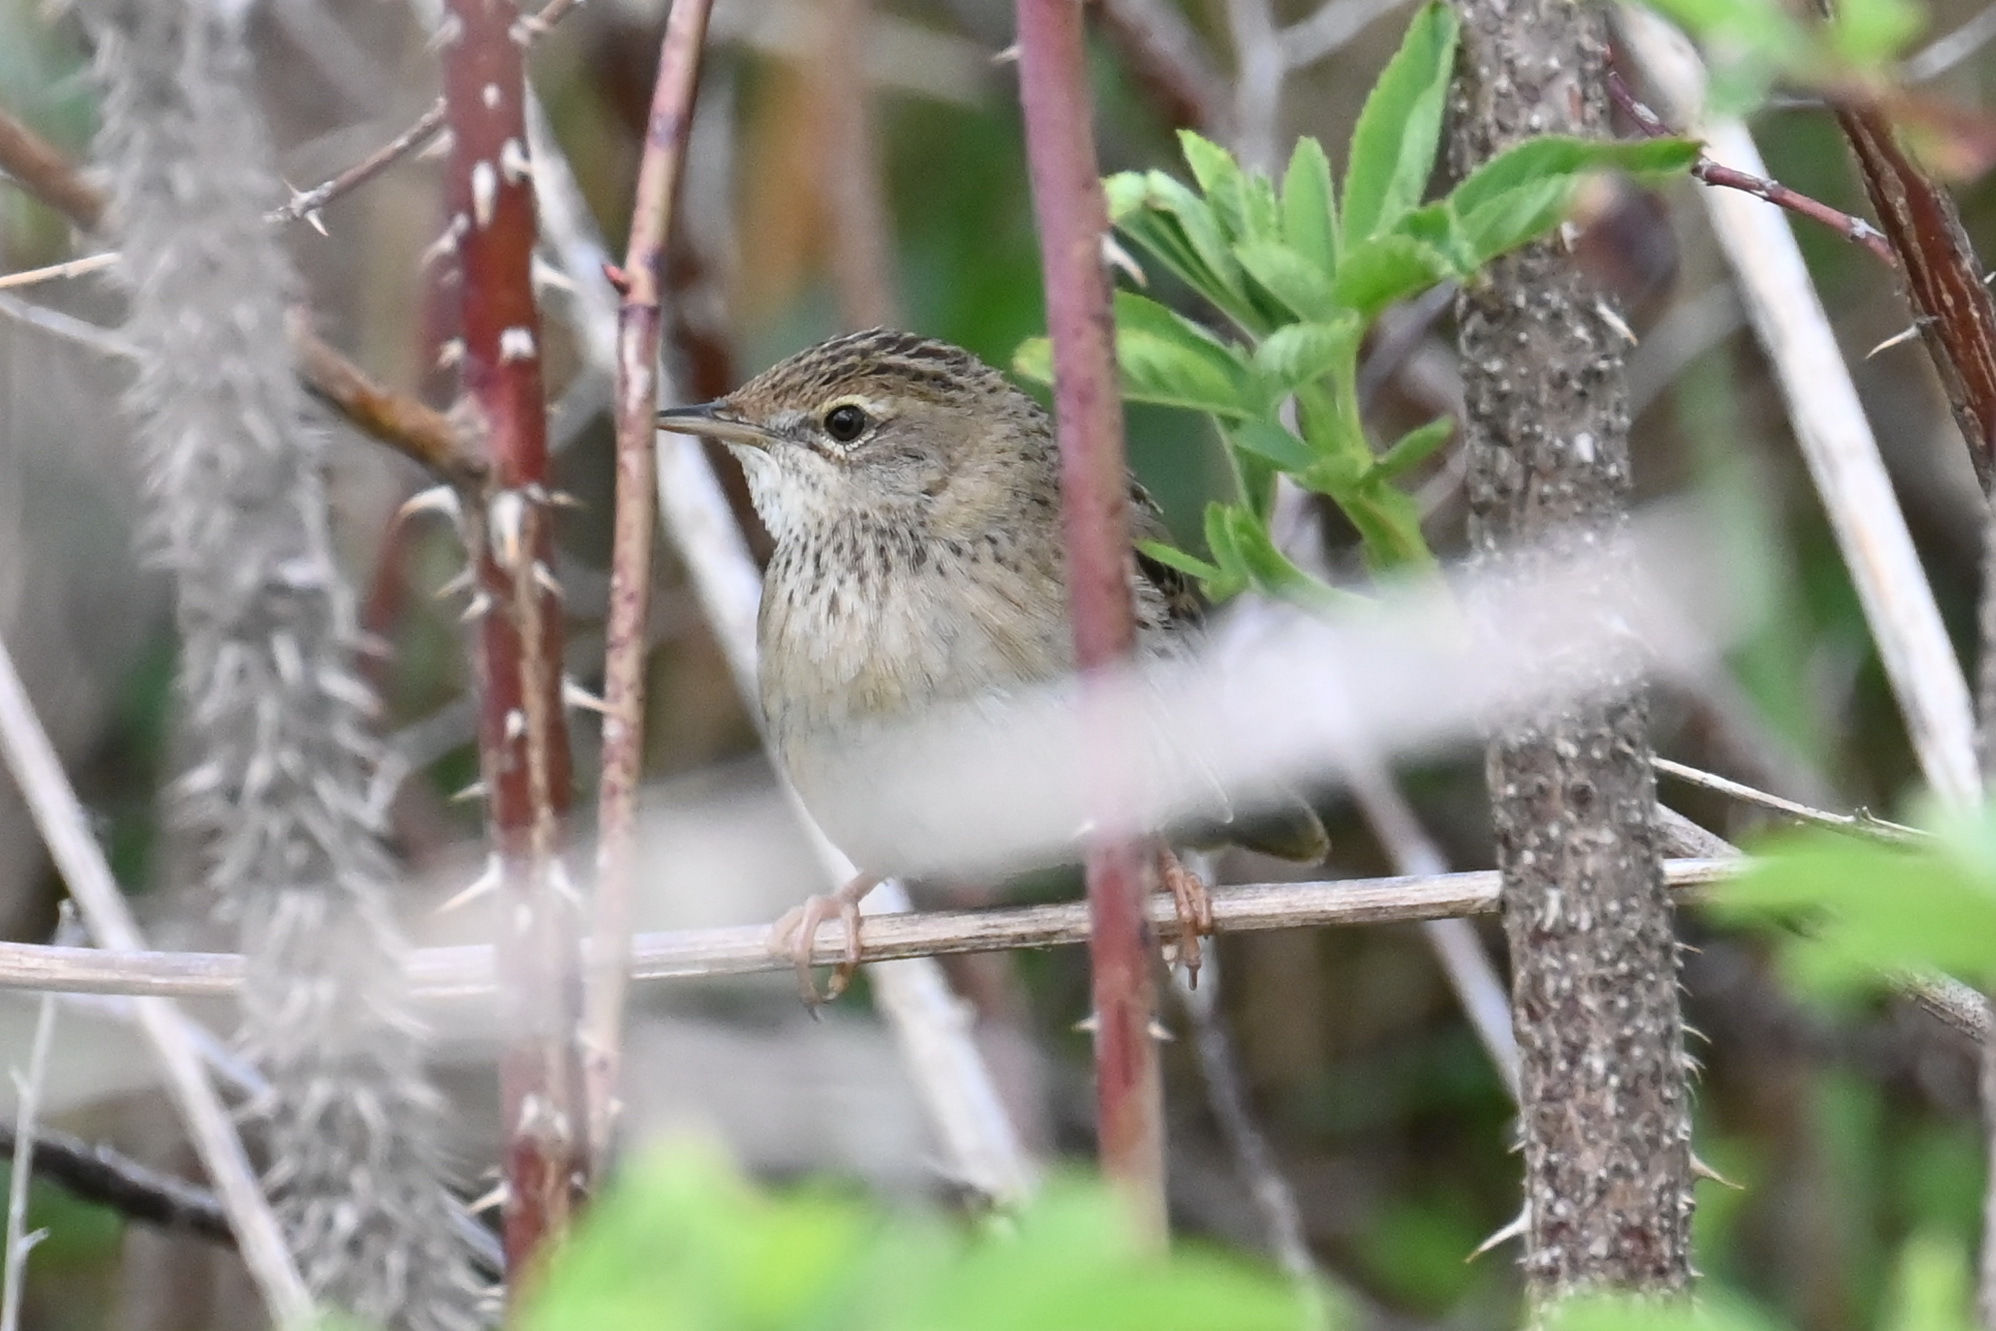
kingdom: Animalia
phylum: Chordata
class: Aves
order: Passeriformes
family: Locustellidae
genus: Locustella
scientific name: Locustella naevia
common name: Common grasshopper warbler
